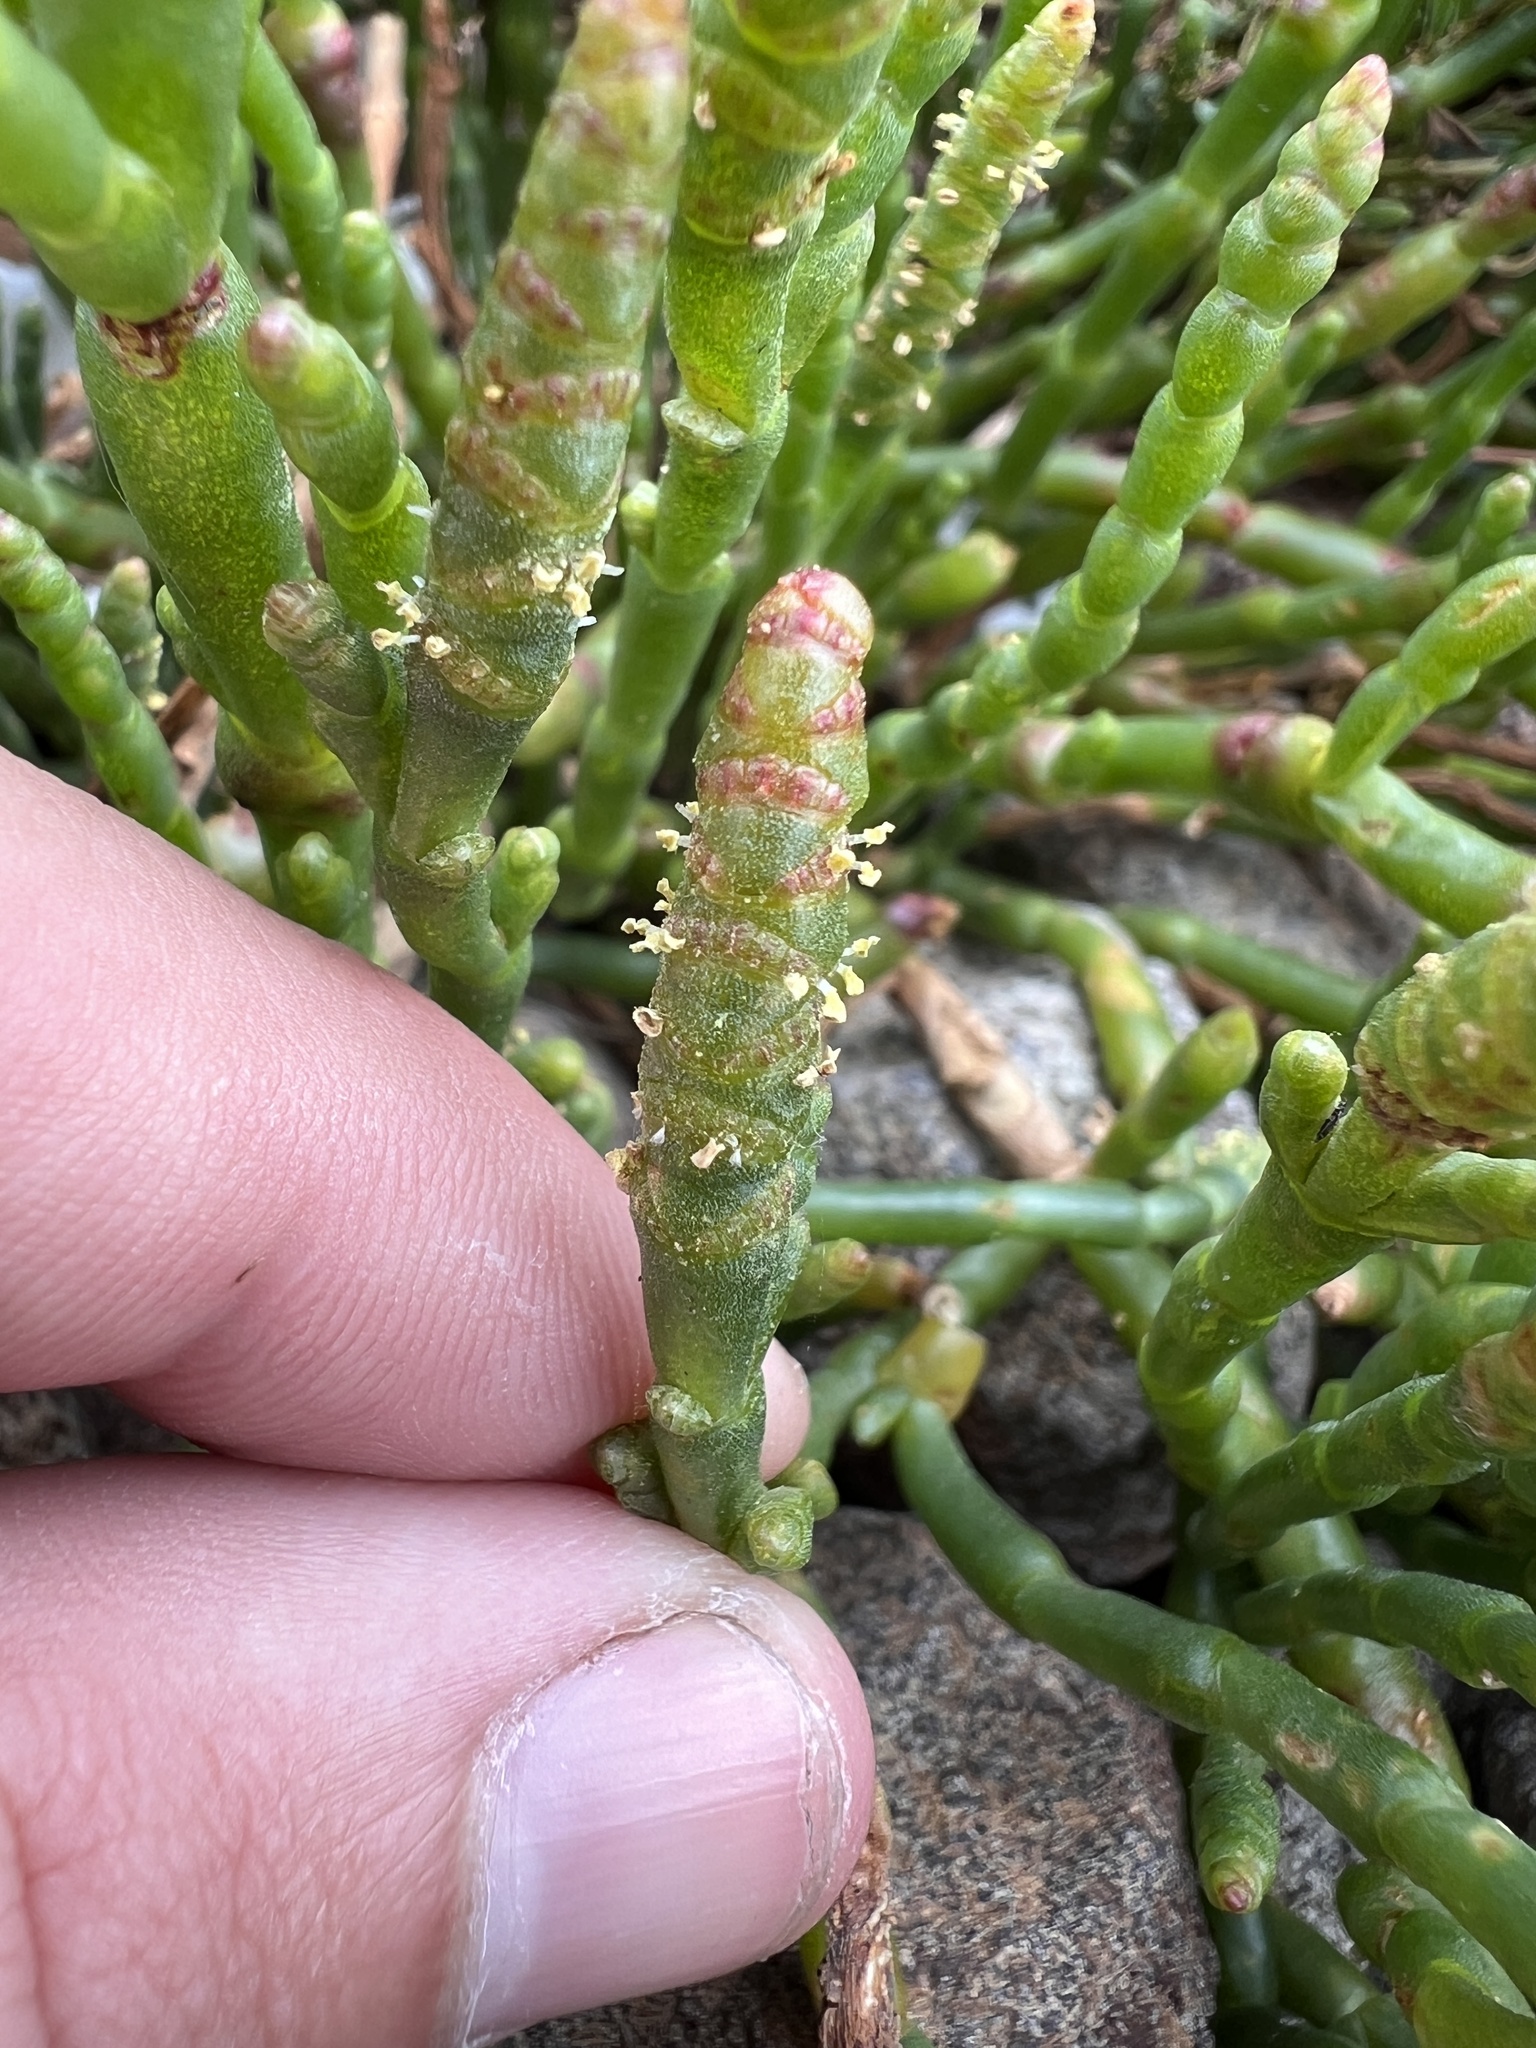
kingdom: Plantae
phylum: Tracheophyta
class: Magnoliopsida
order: Caryophyllales
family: Amaranthaceae
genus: Salicornia
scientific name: Salicornia quinqueflora
